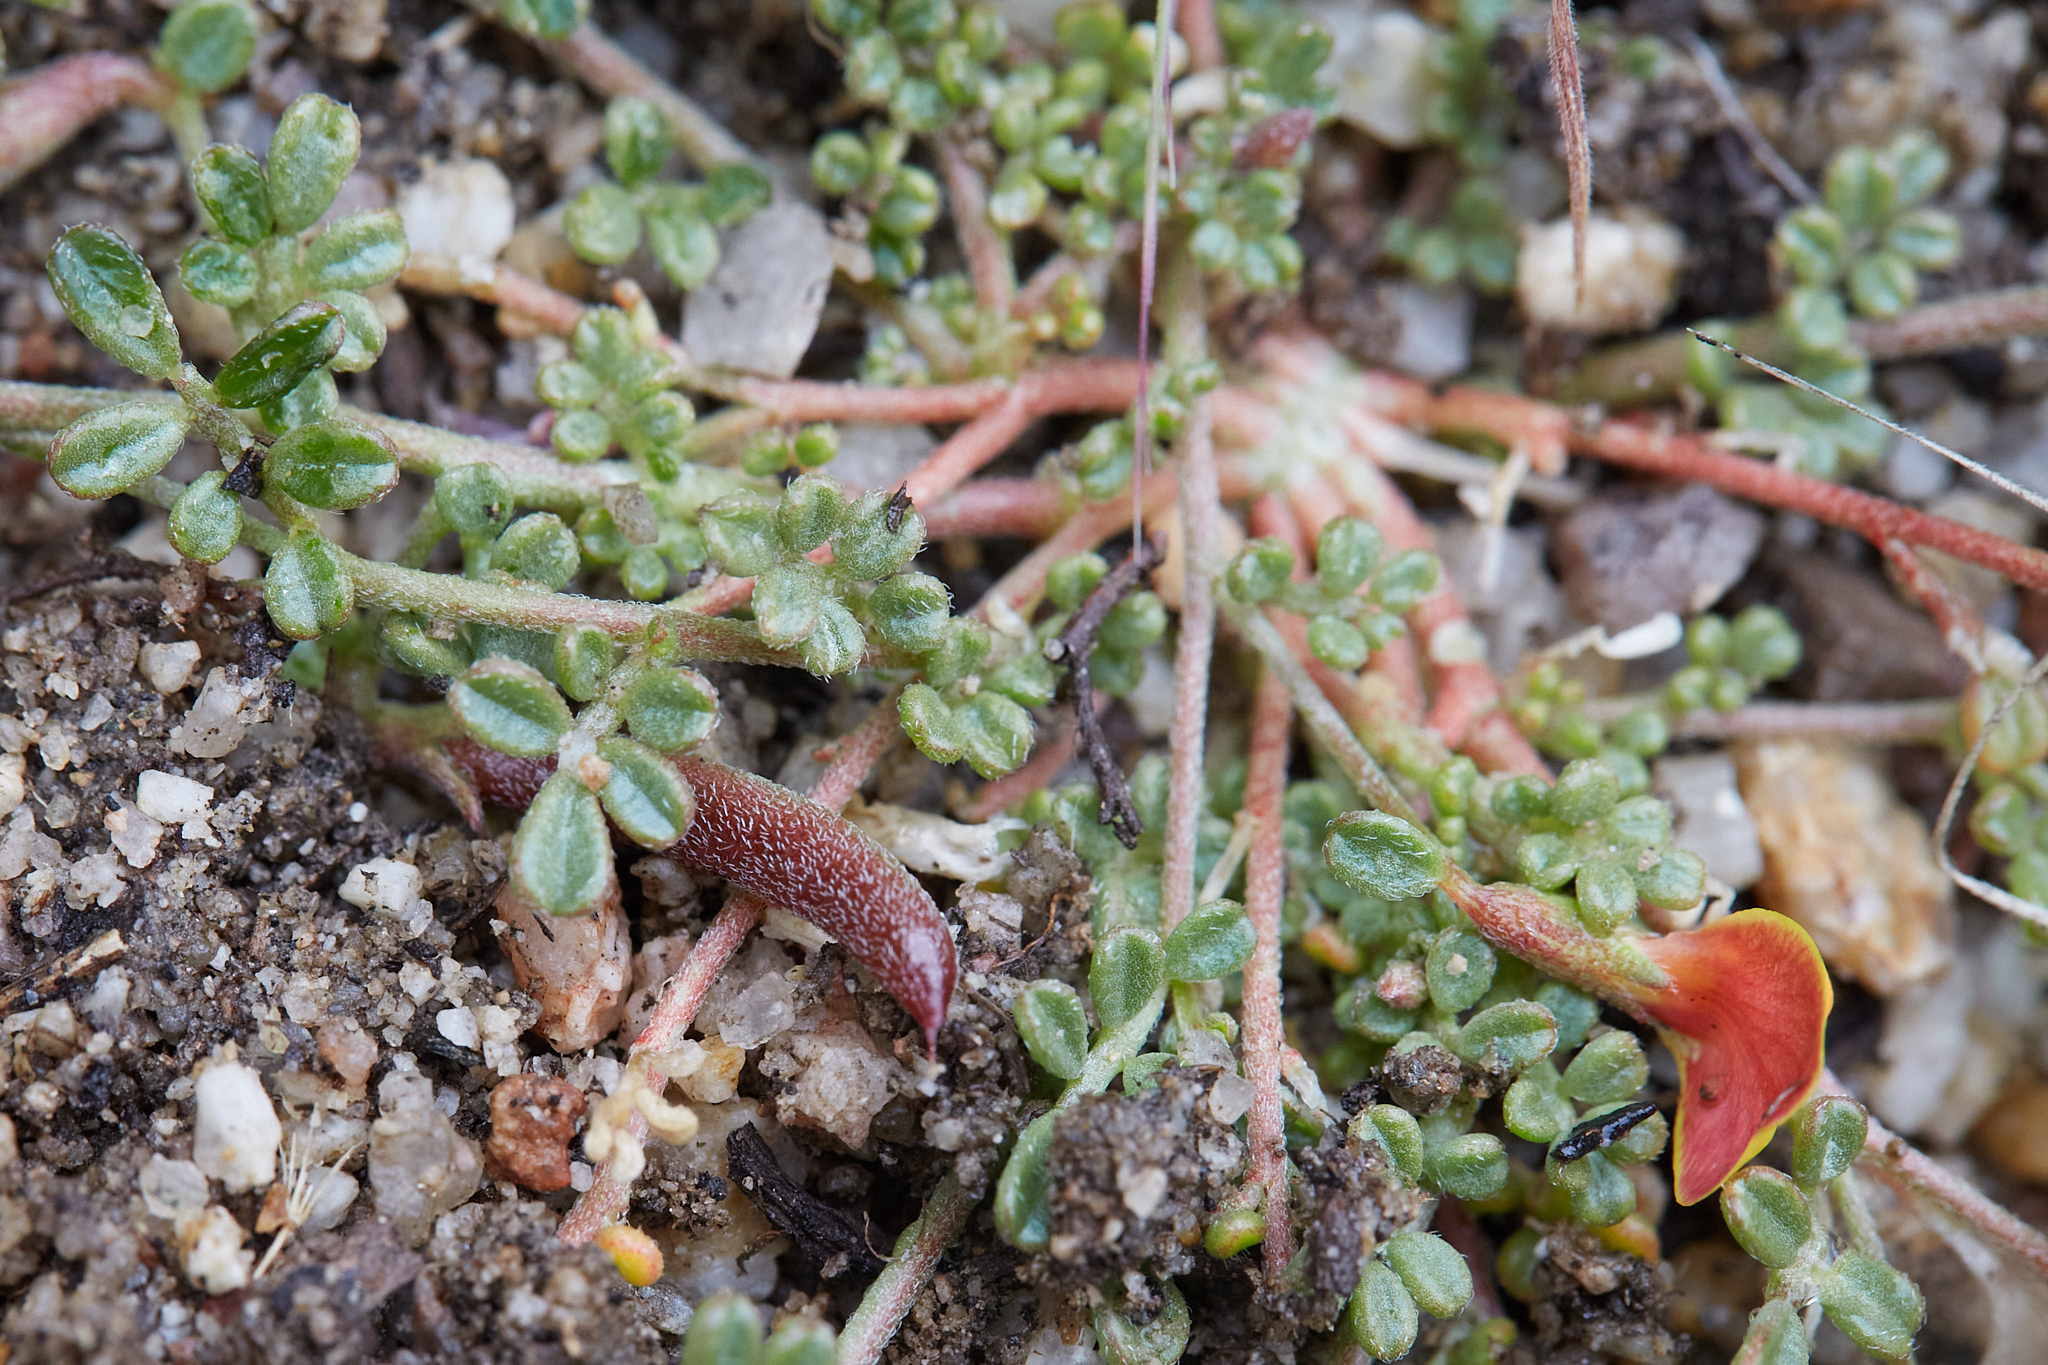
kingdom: Plantae
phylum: Tracheophyta
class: Magnoliopsida
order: Fabales
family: Fabaceae
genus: Acmispon
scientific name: Acmispon strigosus
